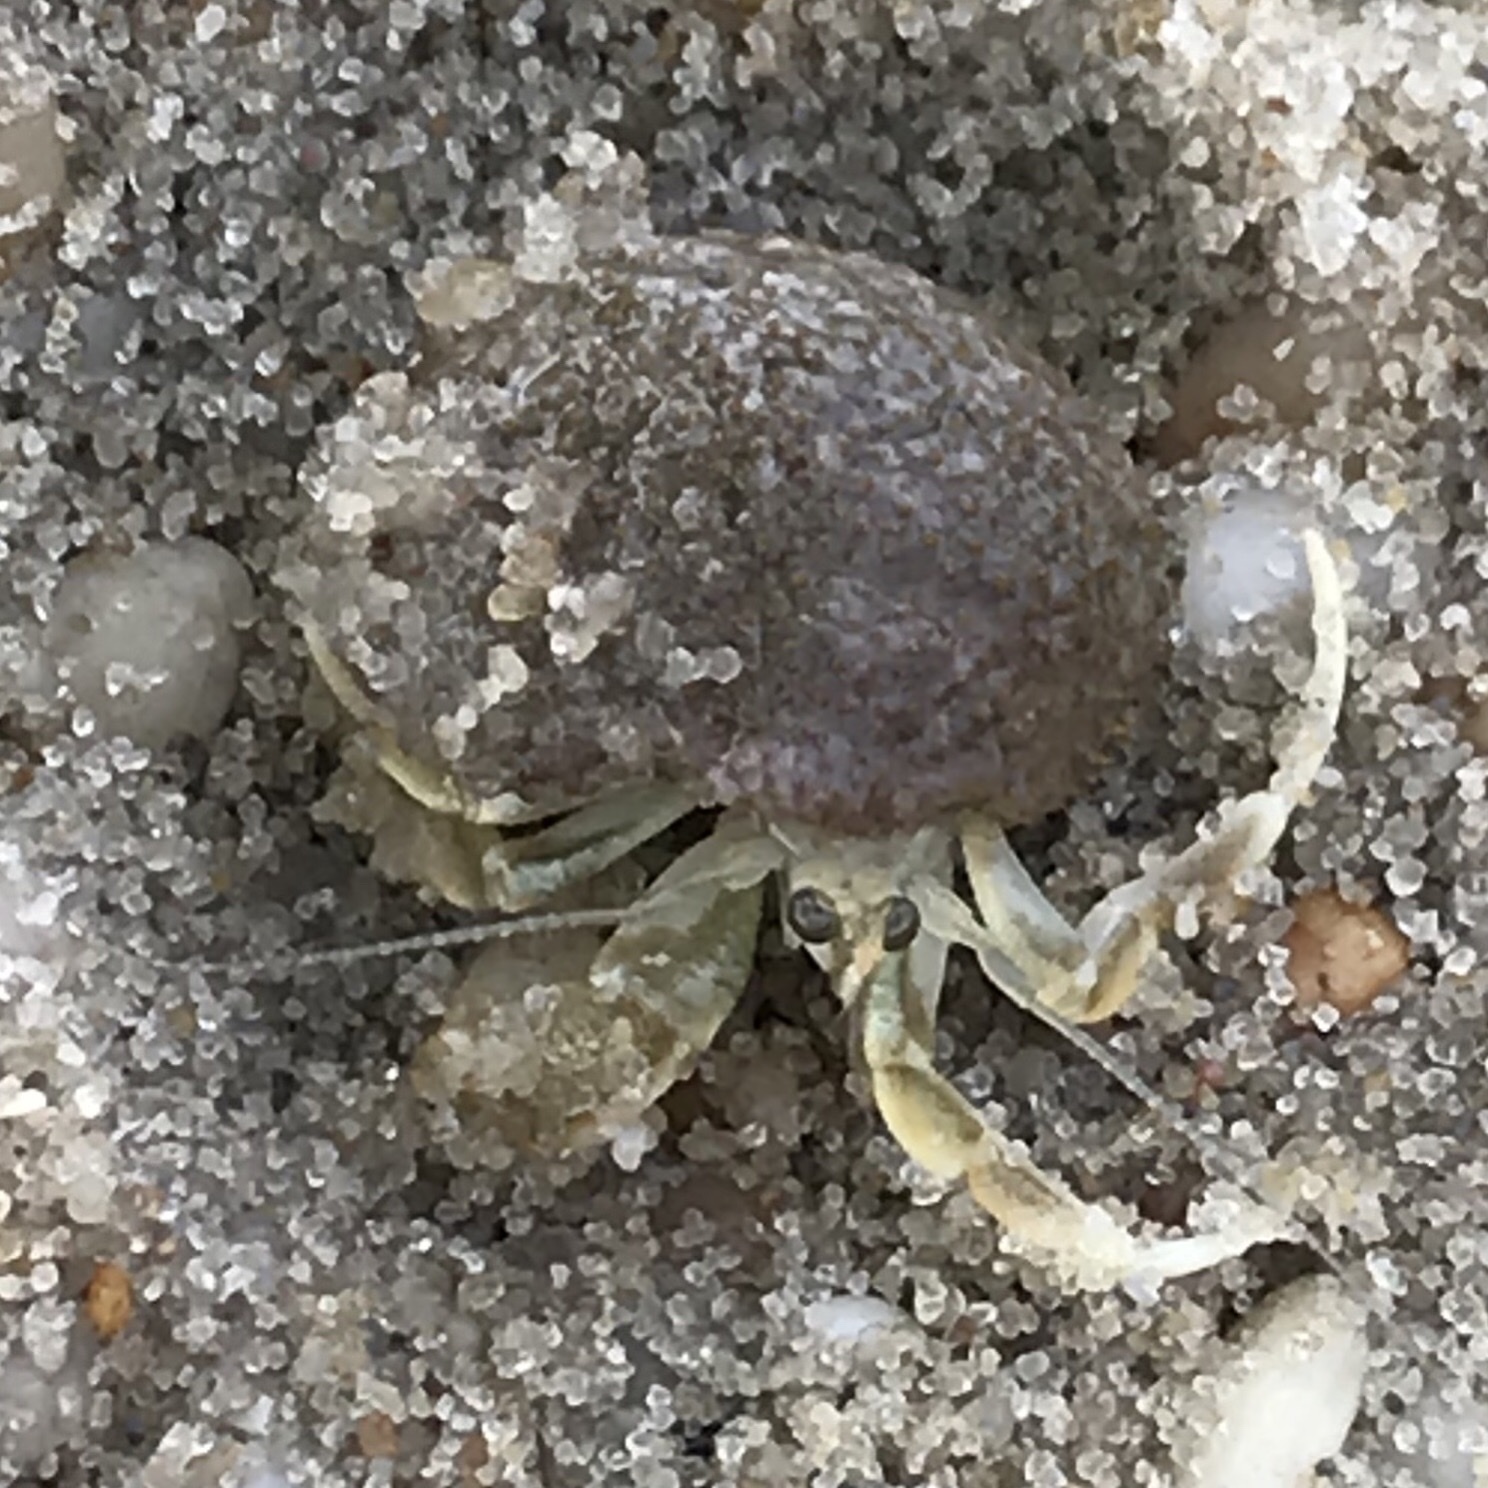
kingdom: Animalia
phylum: Arthropoda
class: Malacostraca
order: Decapoda
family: Paguridae
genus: Pagurus
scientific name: Pagurus longicarpus
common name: Long-armed hermit crab
